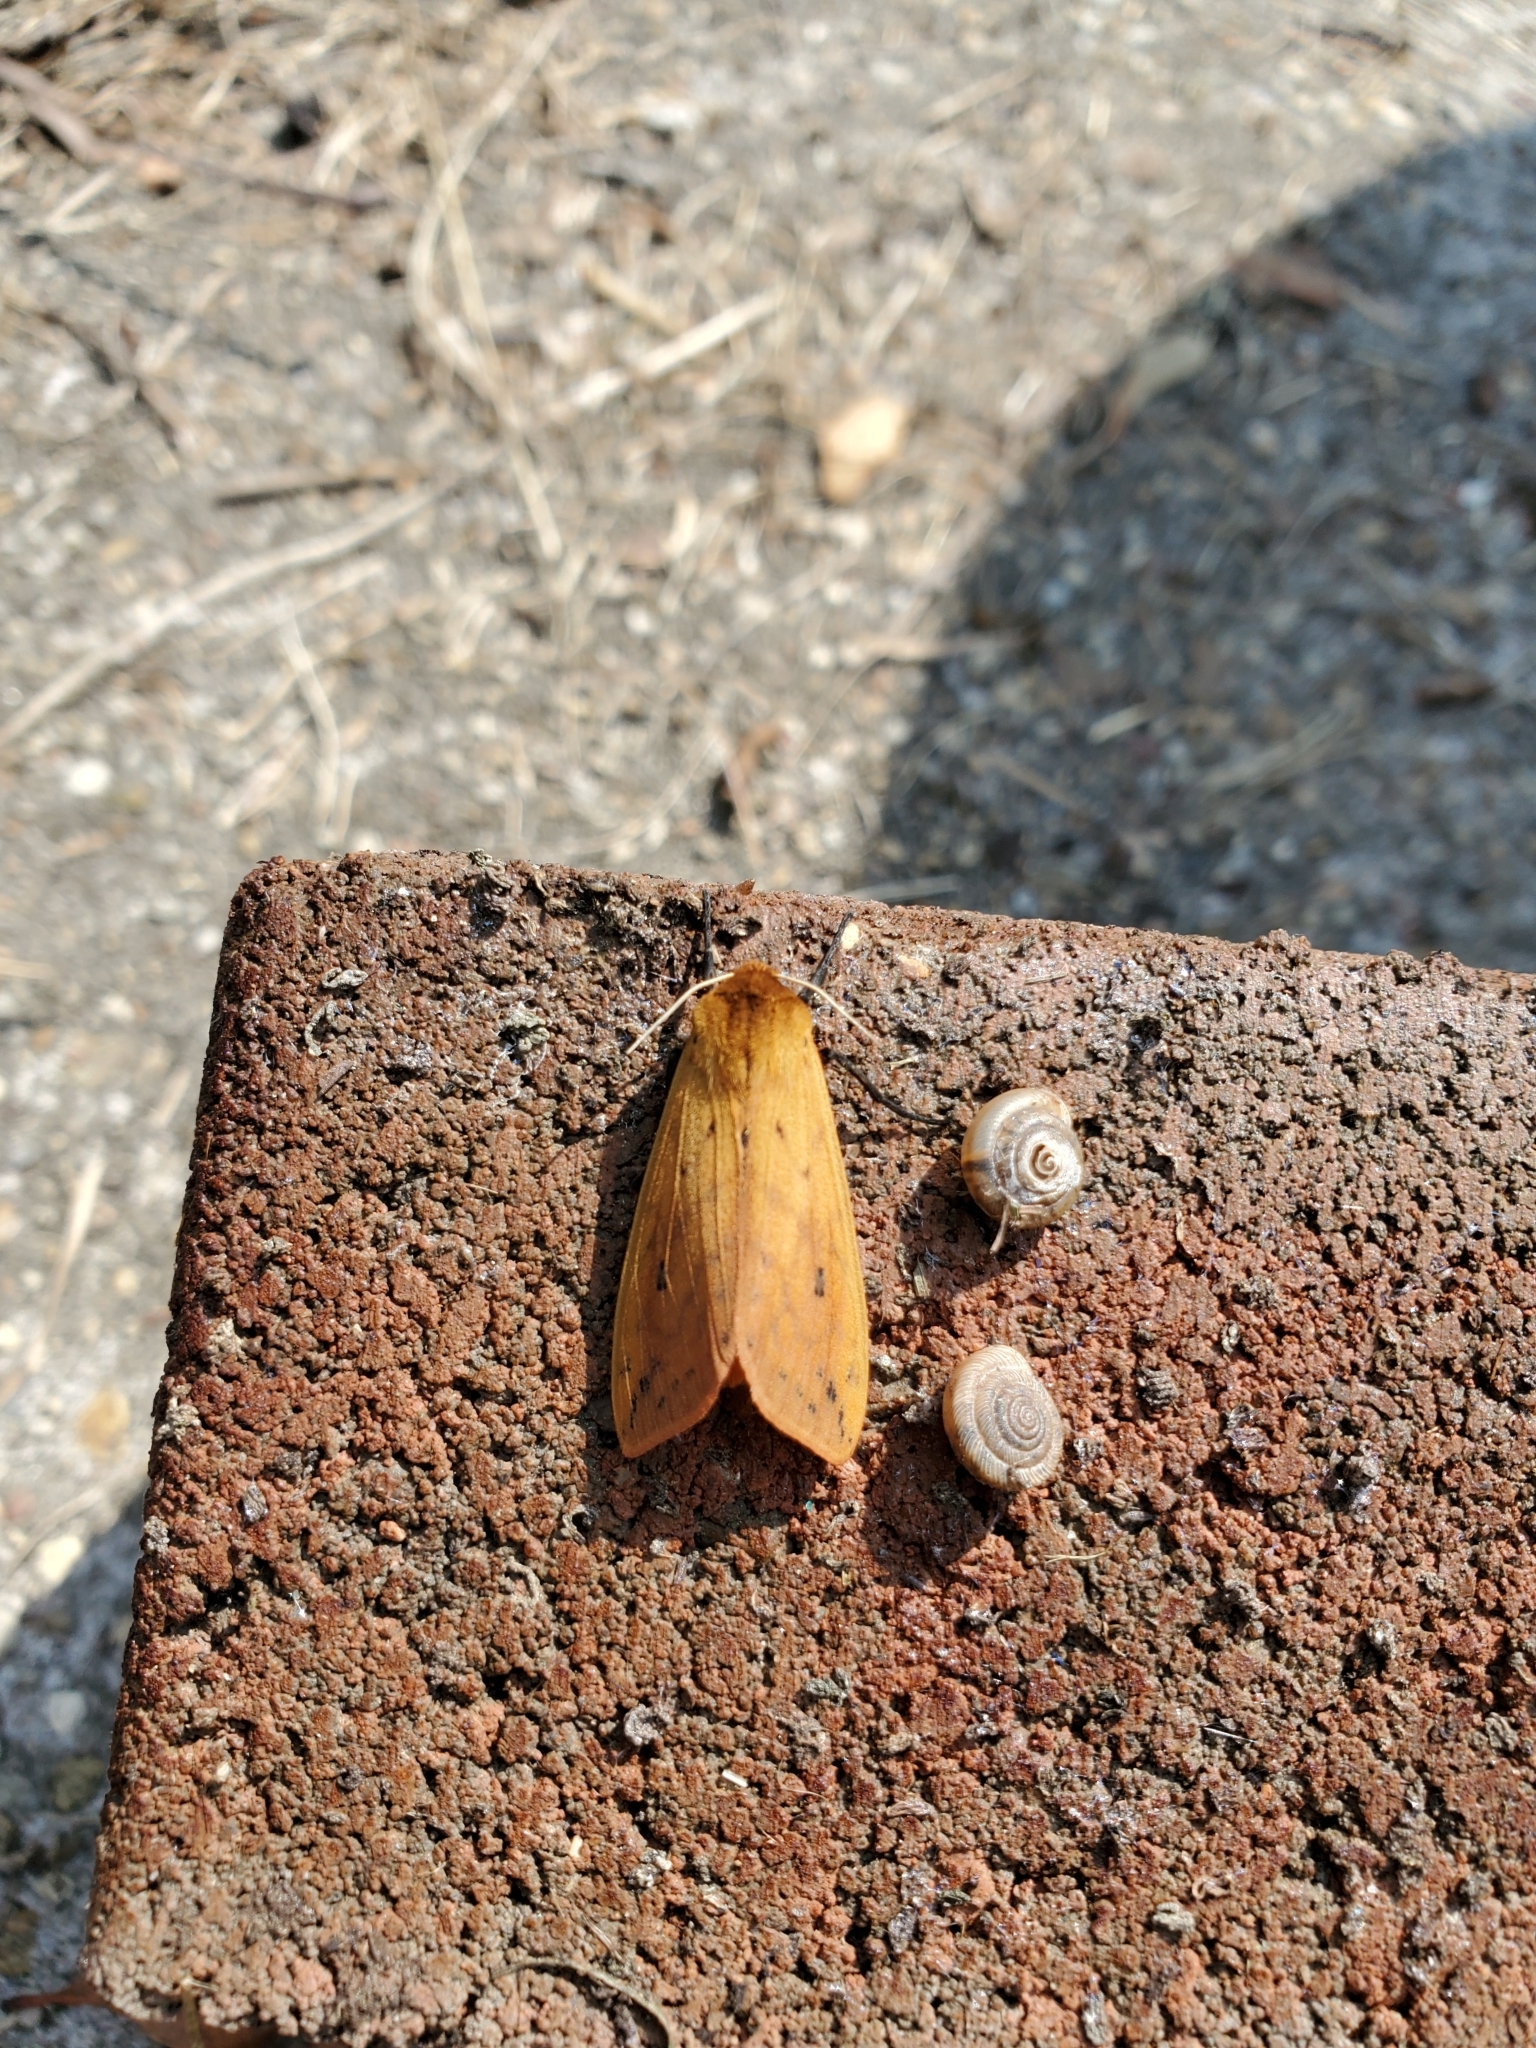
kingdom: Animalia
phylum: Arthropoda
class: Insecta
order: Lepidoptera
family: Erebidae
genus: Pyrrharctia
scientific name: Pyrrharctia isabella
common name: Isabella tiger moth
